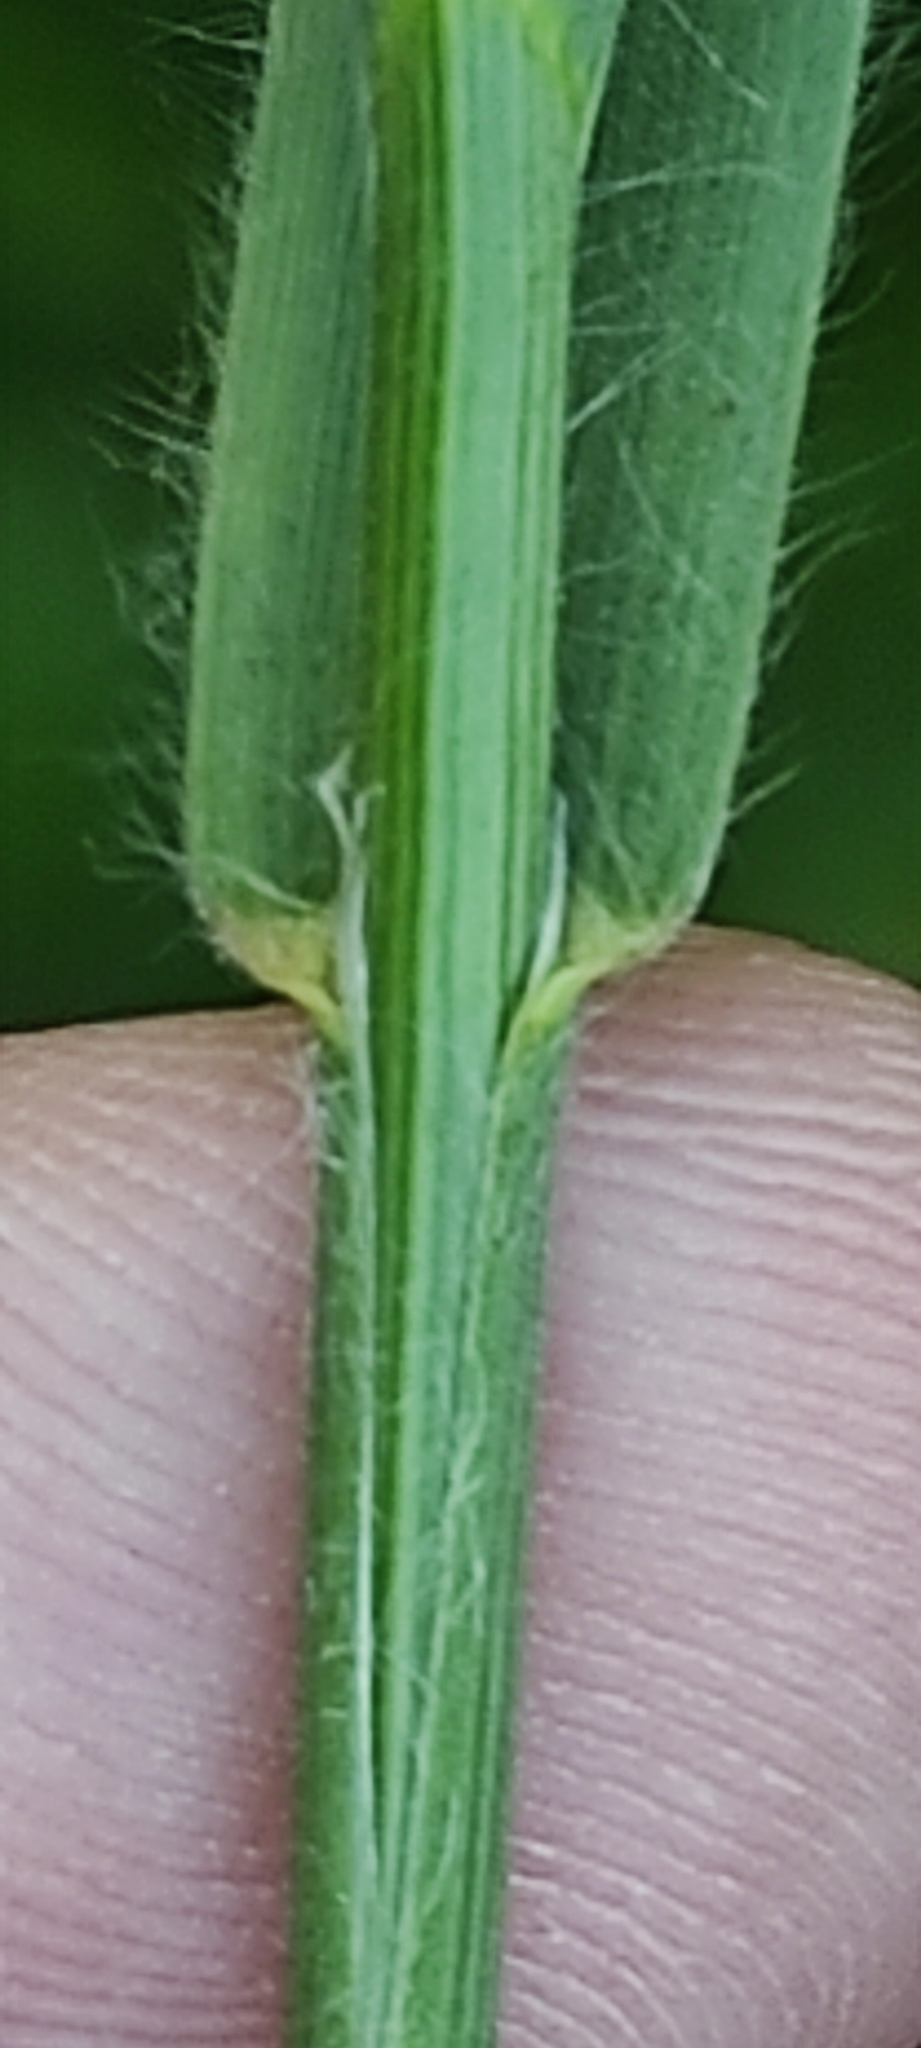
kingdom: Plantae
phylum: Tracheophyta
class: Liliopsida
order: Poales
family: Poaceae
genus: Bromus
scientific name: Bromus tectorum
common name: Cheatgrass
